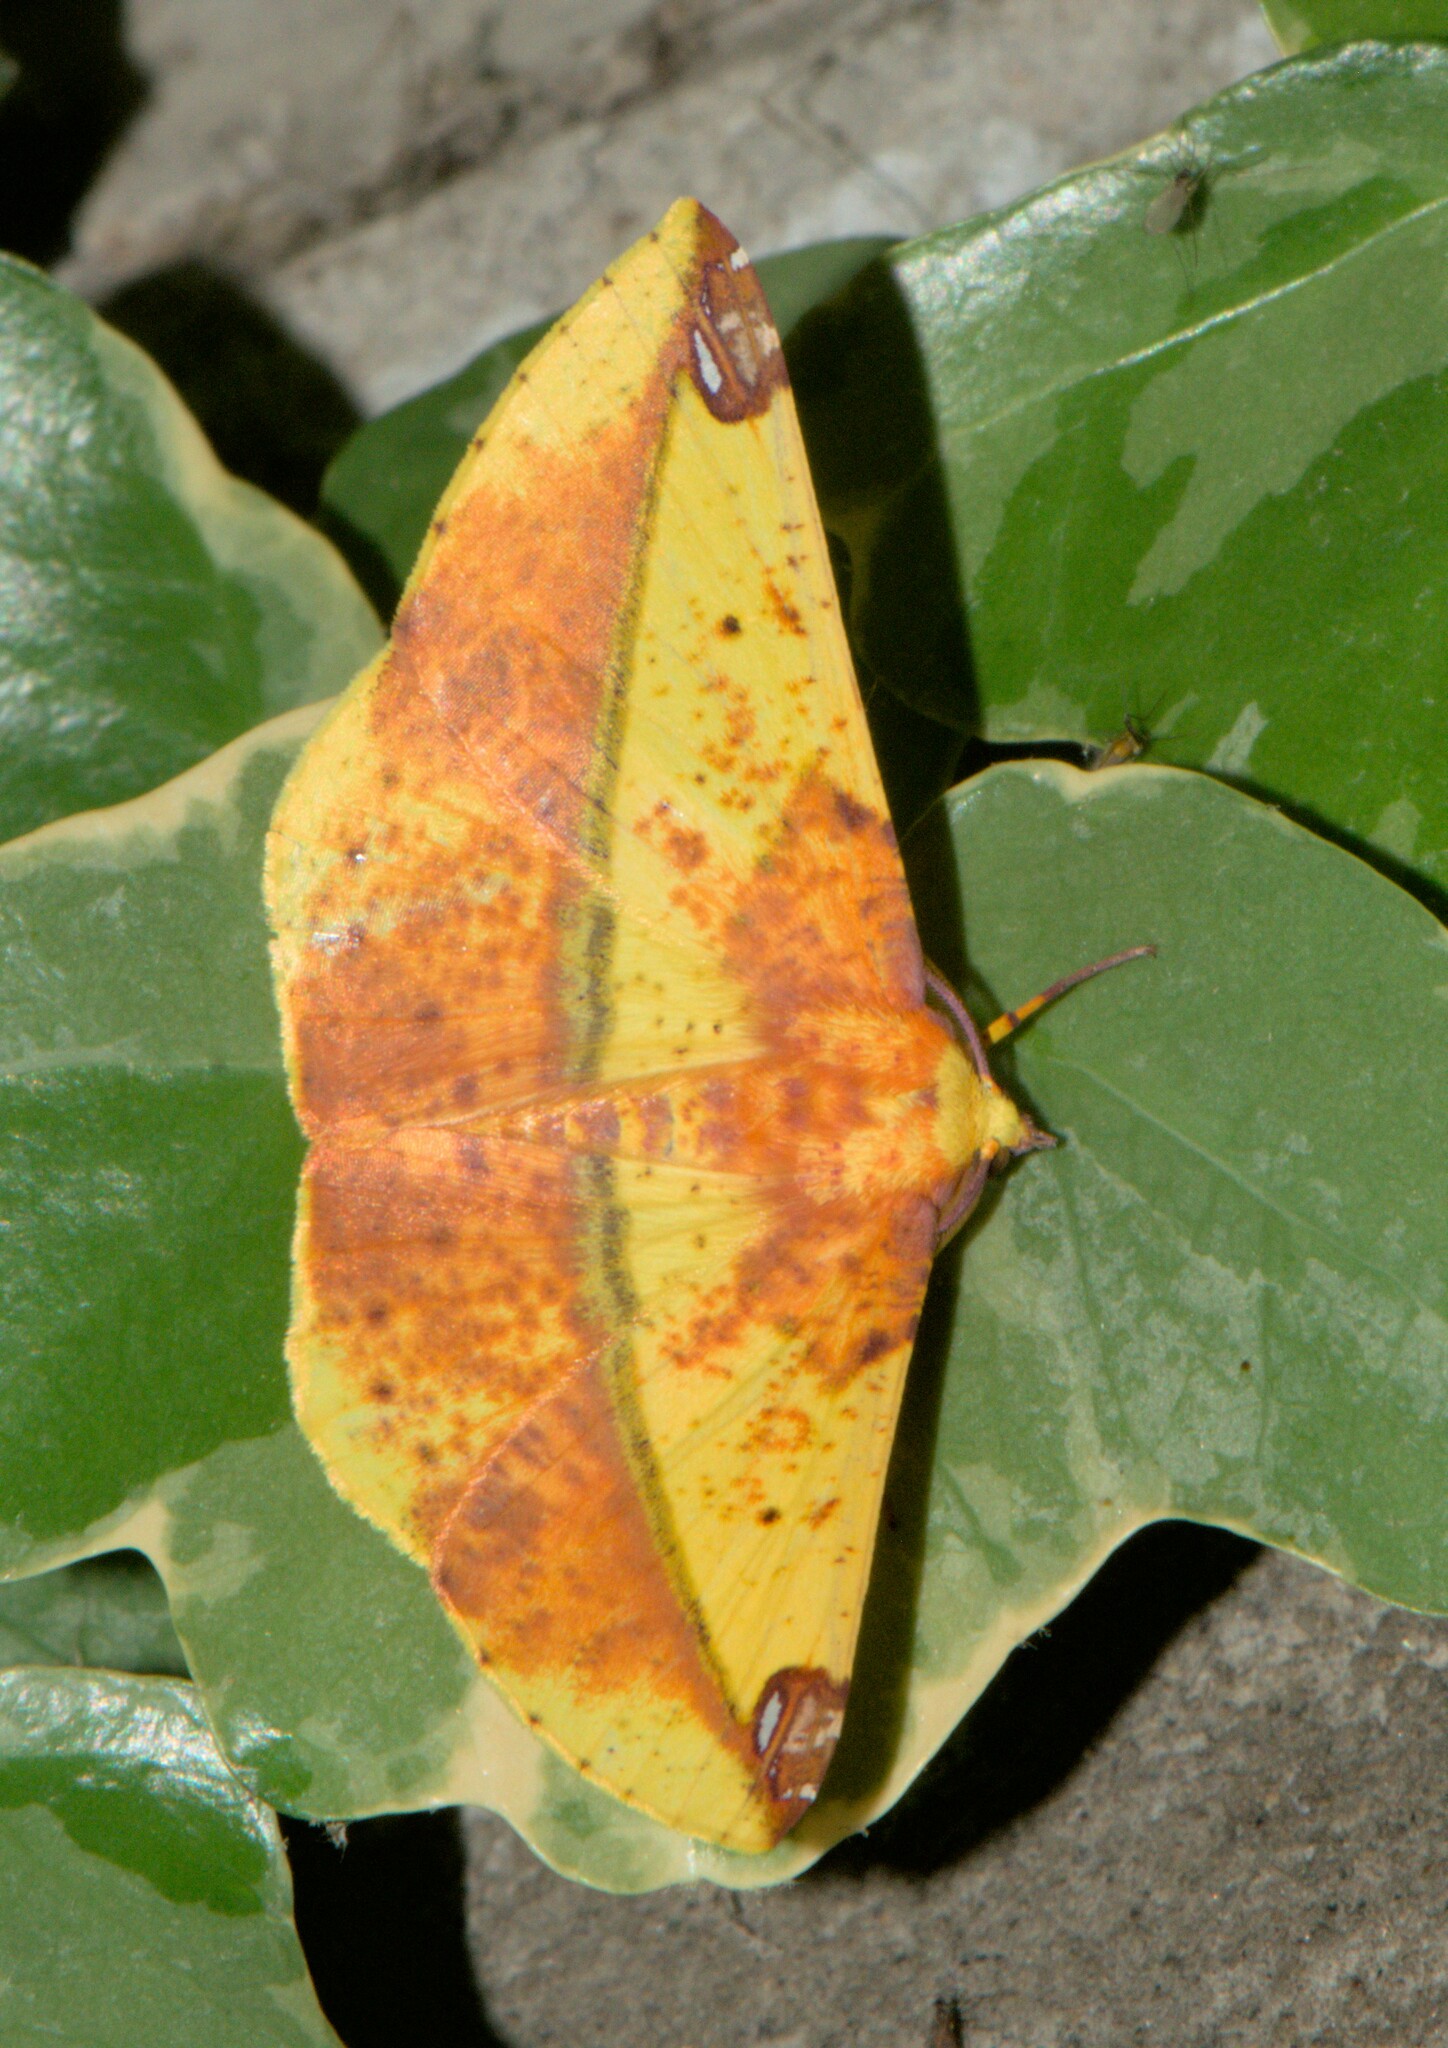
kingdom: Animalia
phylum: Arthropoda
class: Insecta
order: Lepidoptera
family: Geometridae
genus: Mimomiza
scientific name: Mimomiza cruentaria
